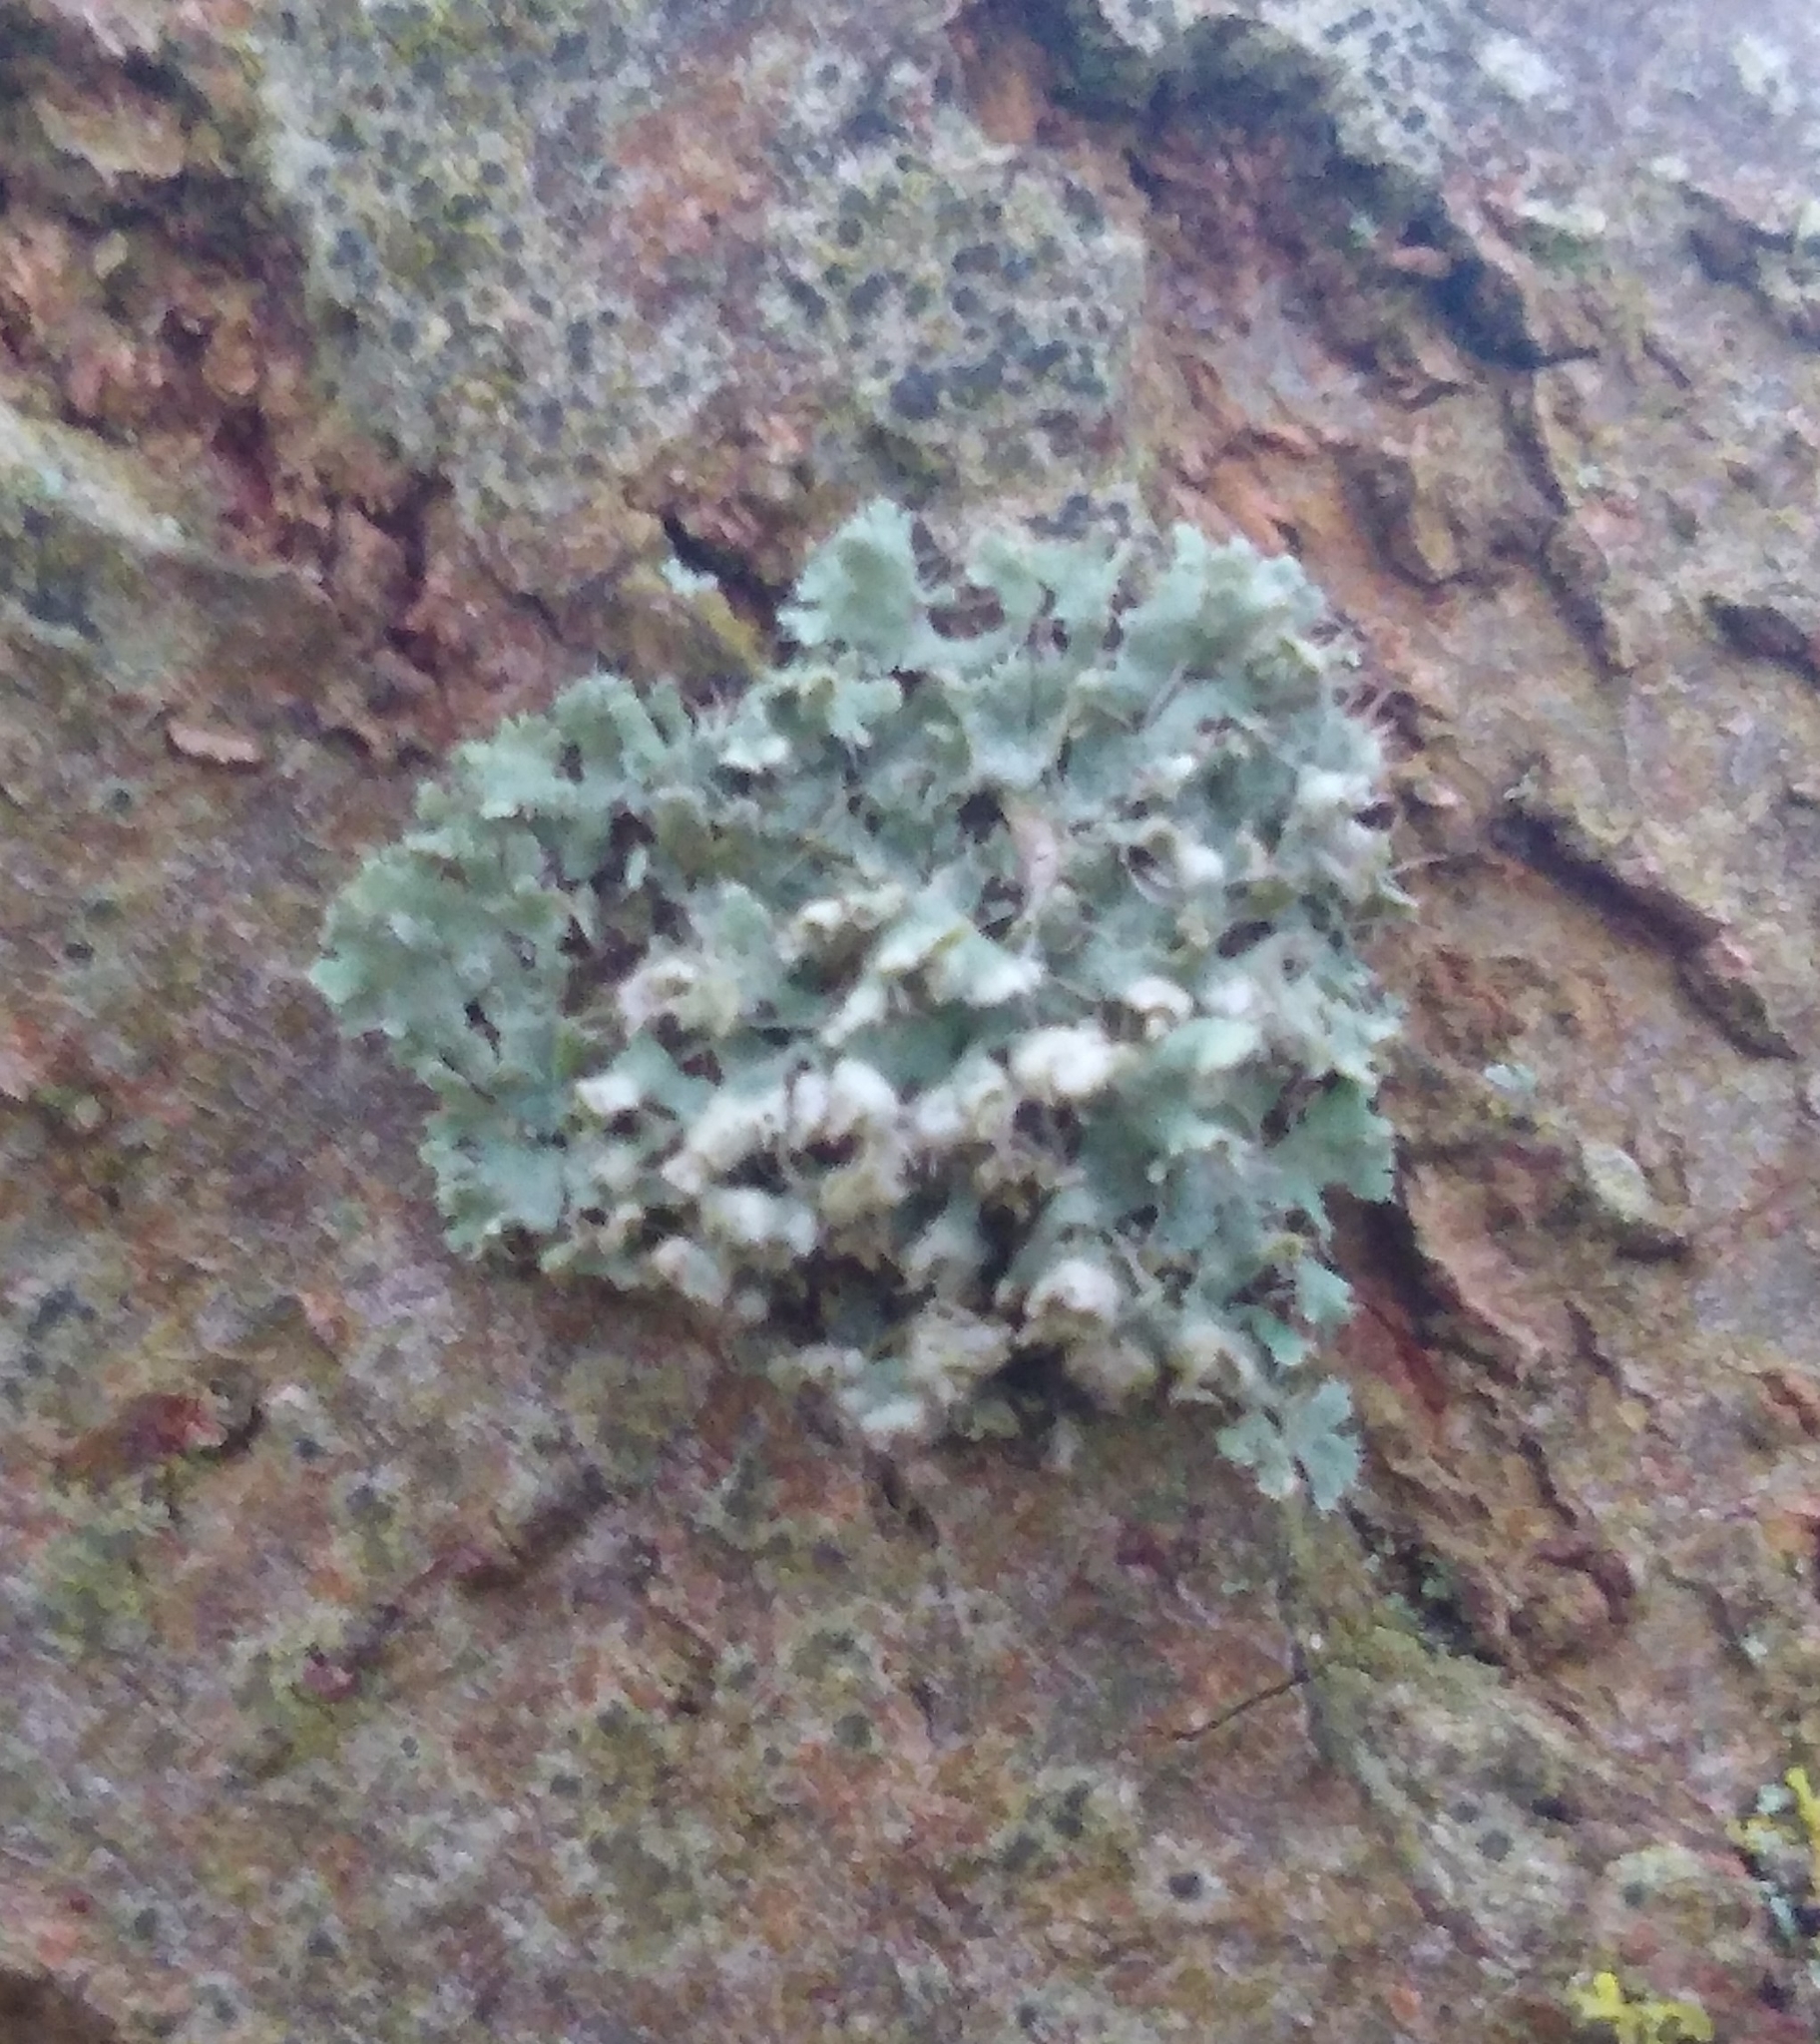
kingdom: Fungi
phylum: Ascomycota
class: Lecanoromycetes
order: Caliciales
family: Physciaceae
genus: Physcia
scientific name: Physcia adscendens
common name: Hooded rosette lichen
